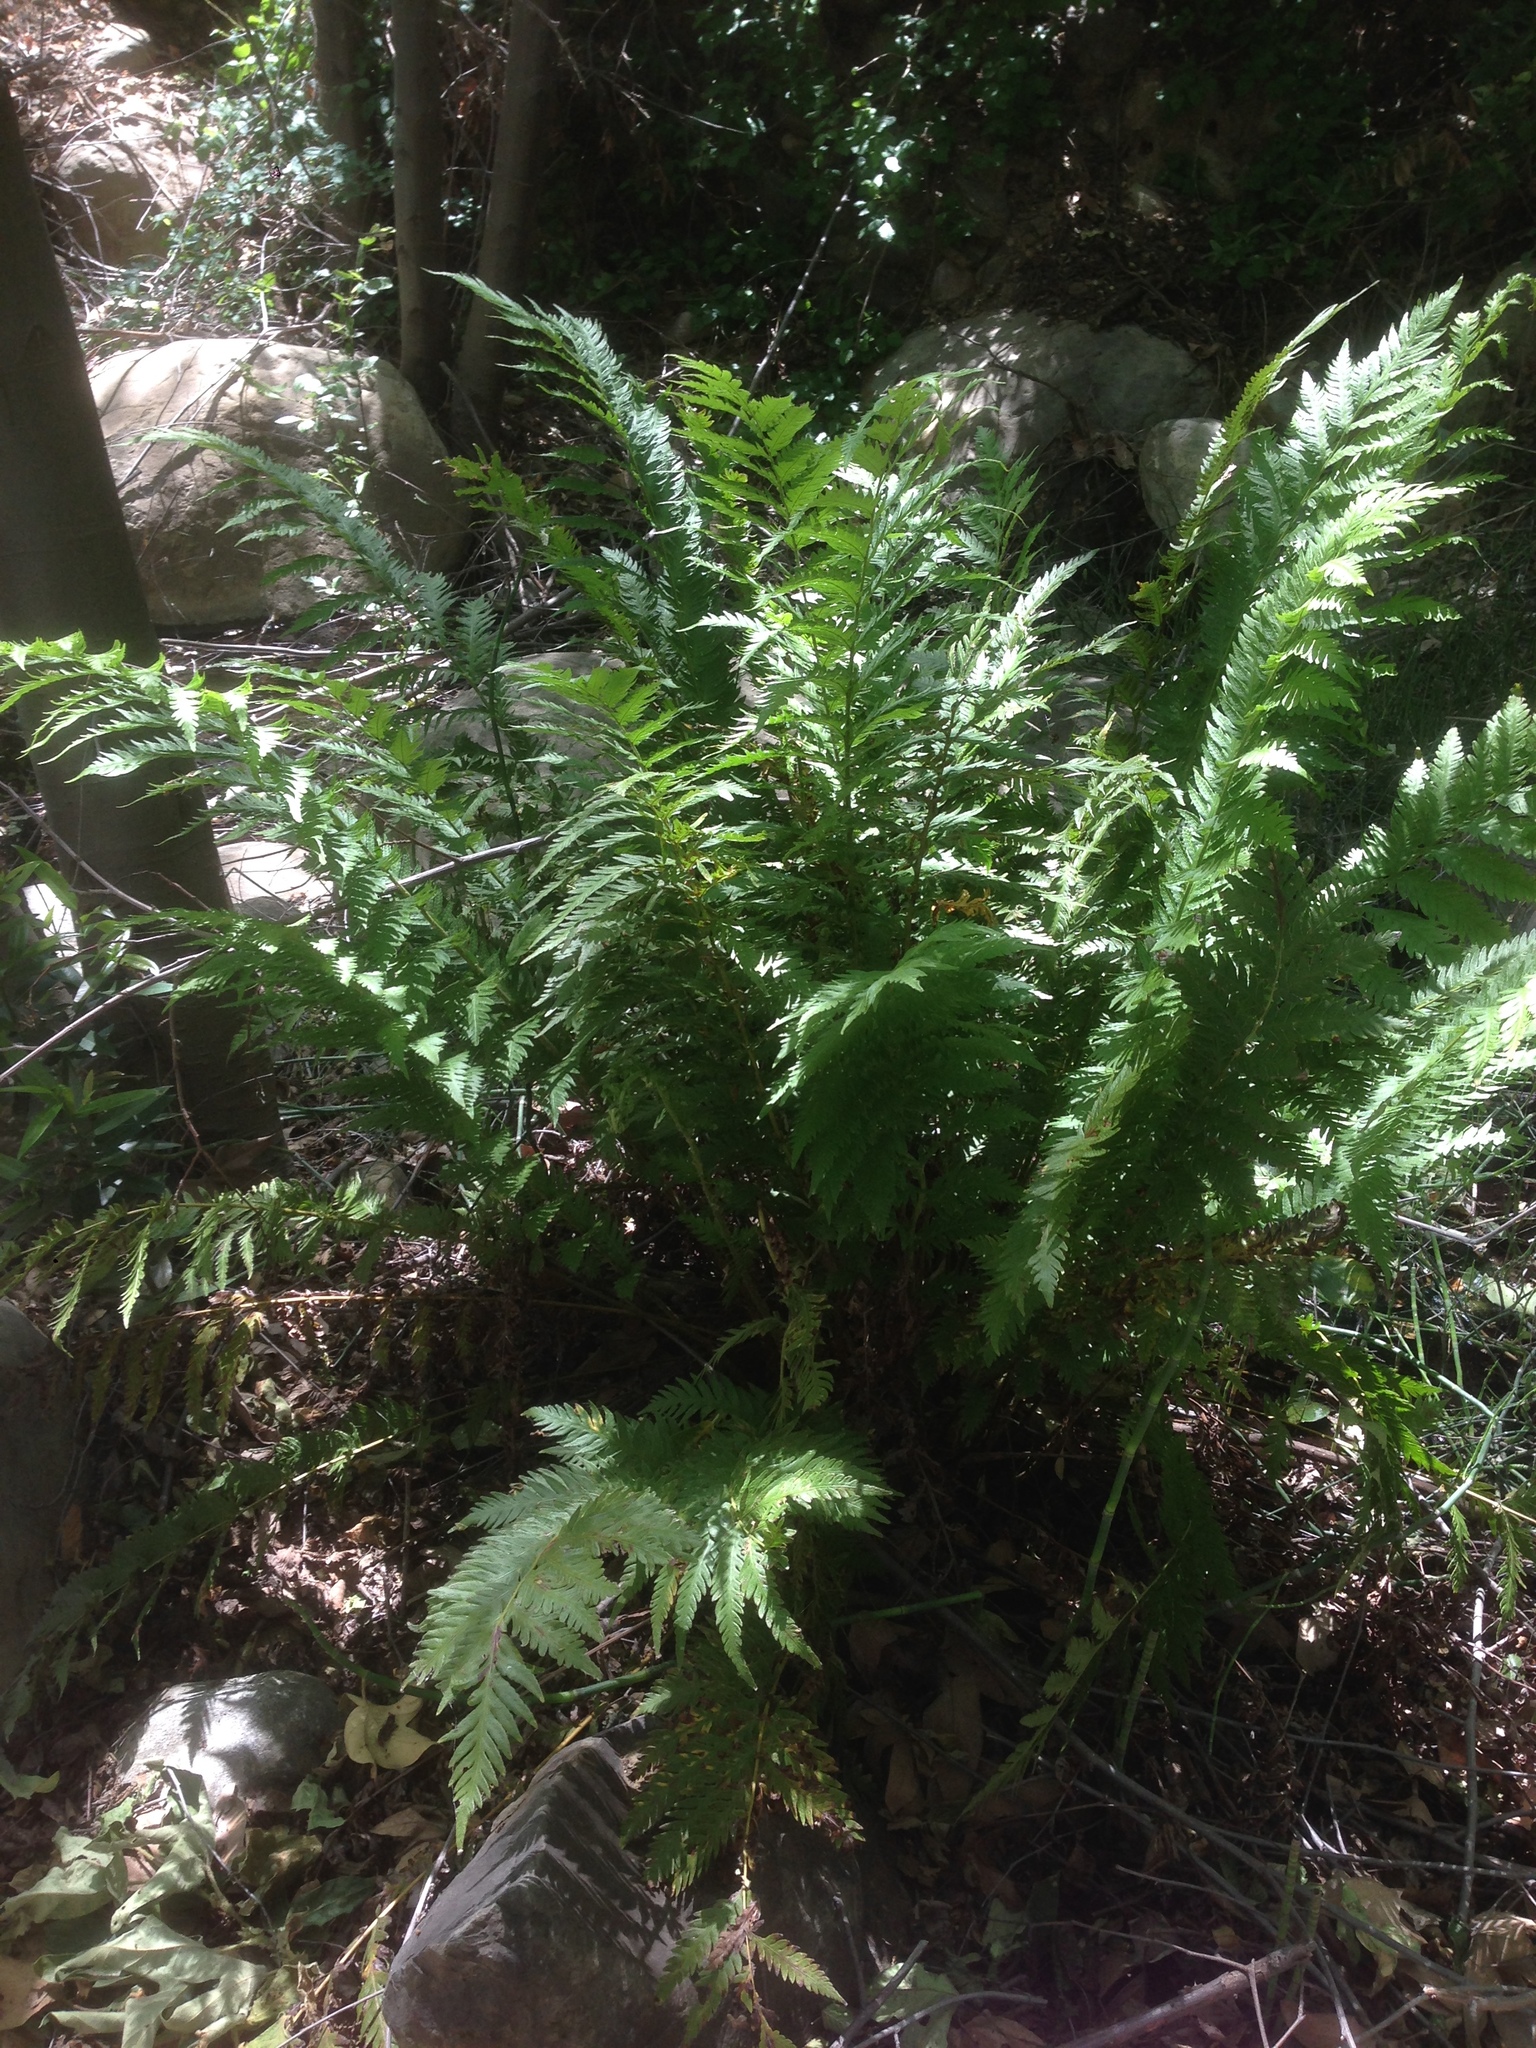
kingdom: Plantae
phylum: Tracheophyta
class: Polypodiopsida
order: Polypodiales
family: Blechnaceae
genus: Woodwardia
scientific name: Woodwardia fimbriata
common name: Giant chain fern
